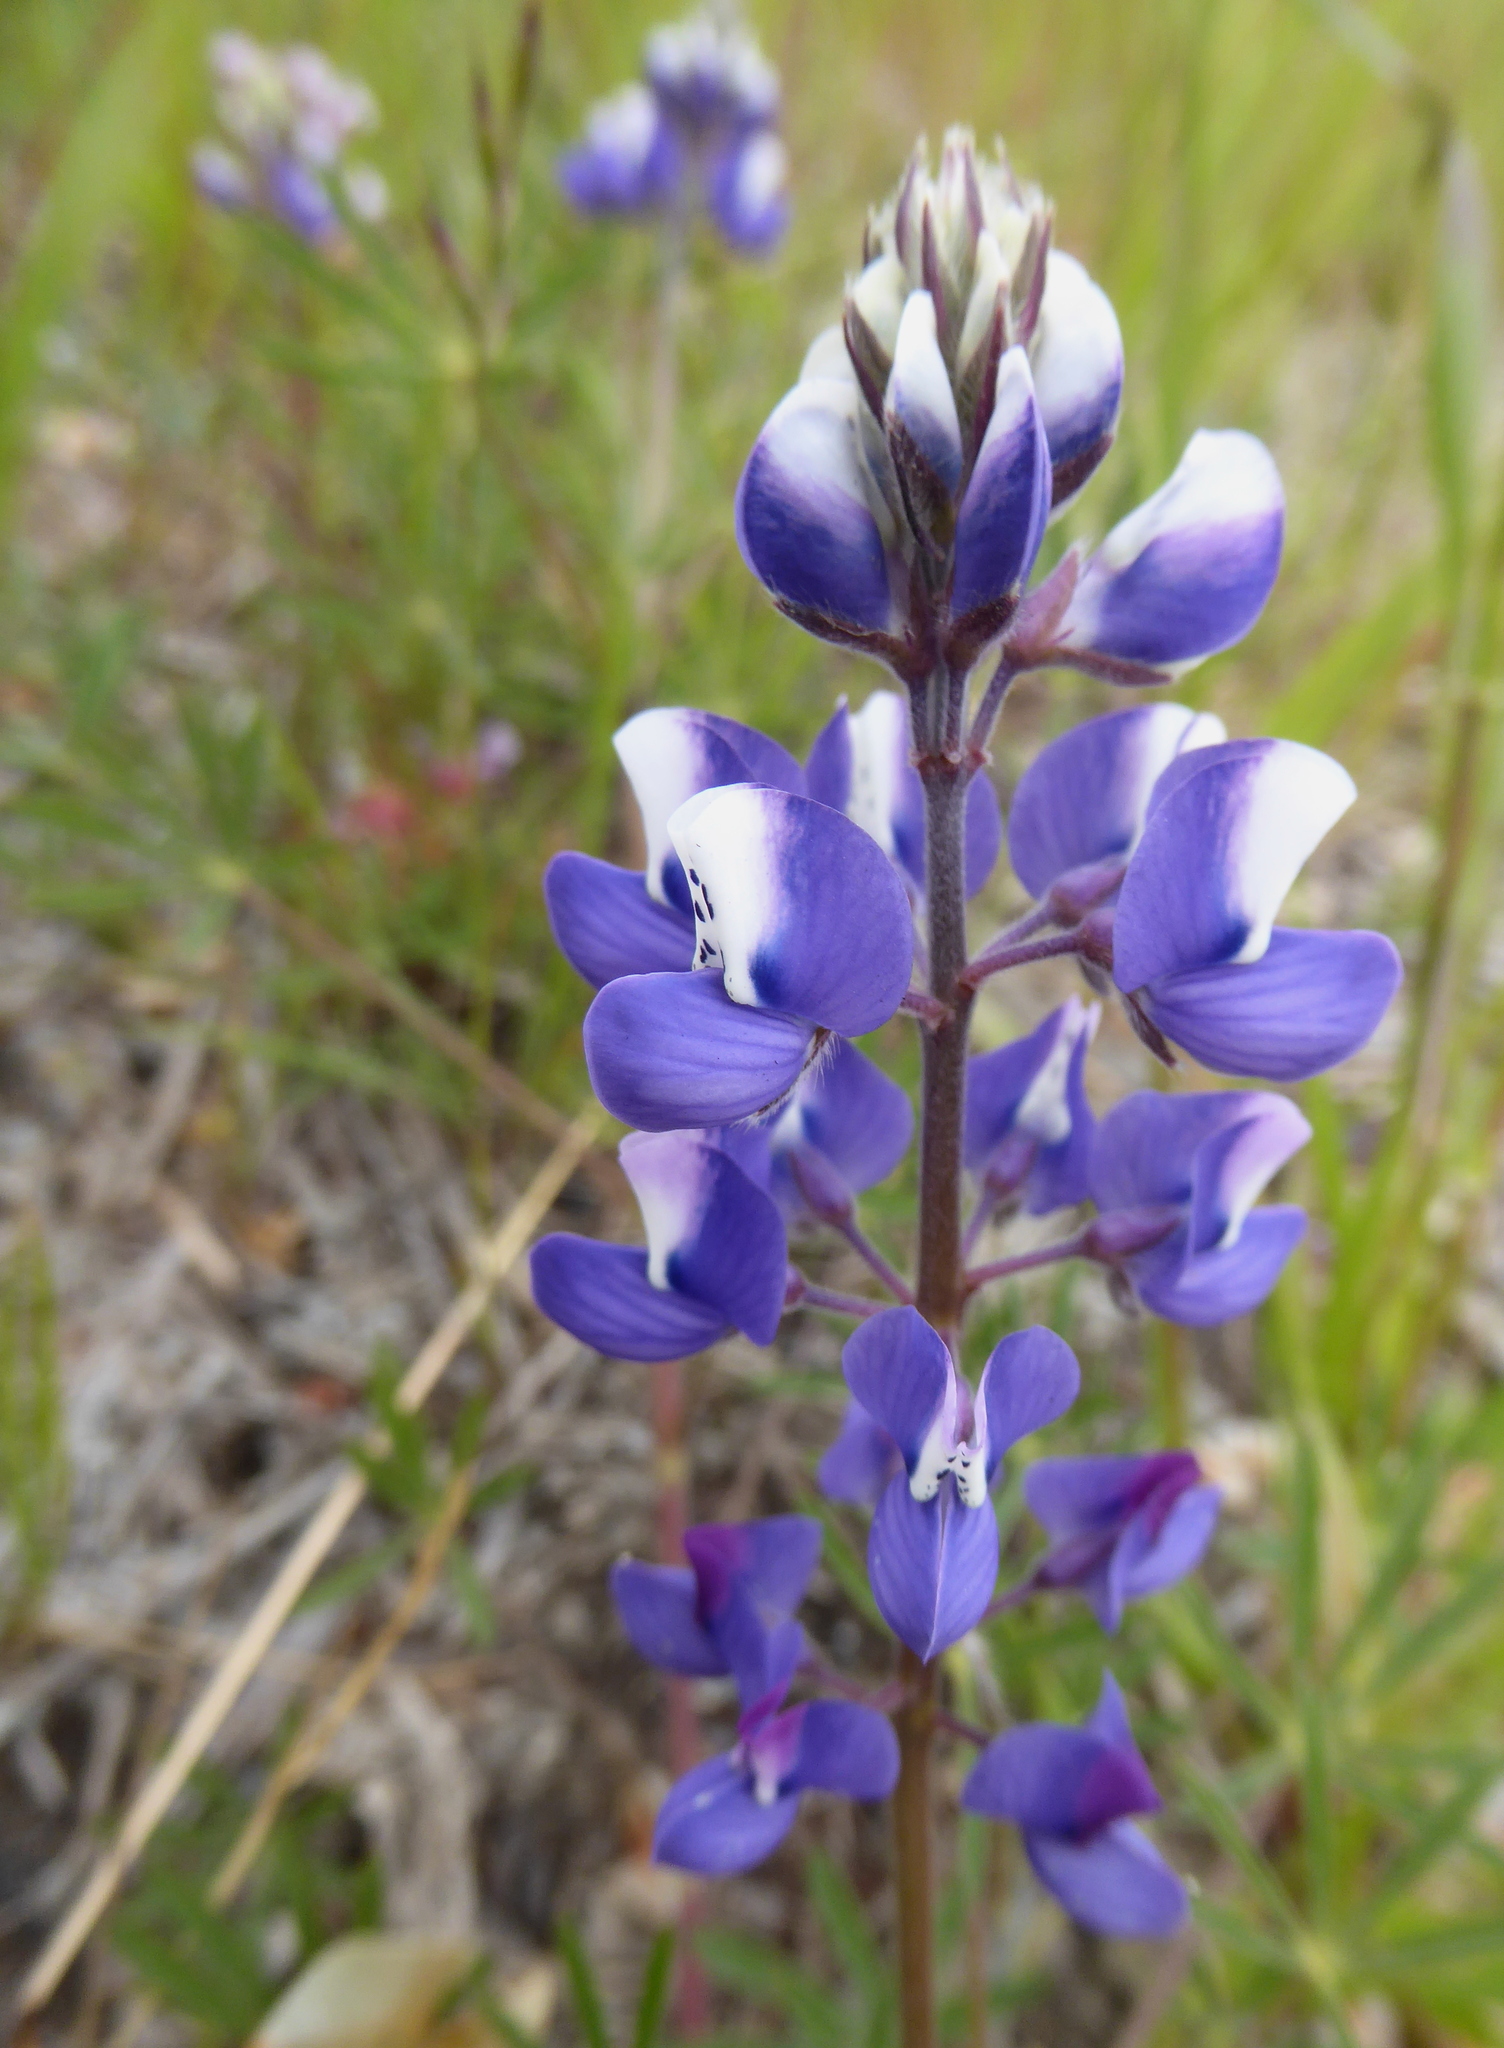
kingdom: Plantae
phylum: Tracheophyta
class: Magnoliopsida
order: Fabales
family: Fabaceae
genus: Lupinus
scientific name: Lupinus nanus
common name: Orean blue lupin
